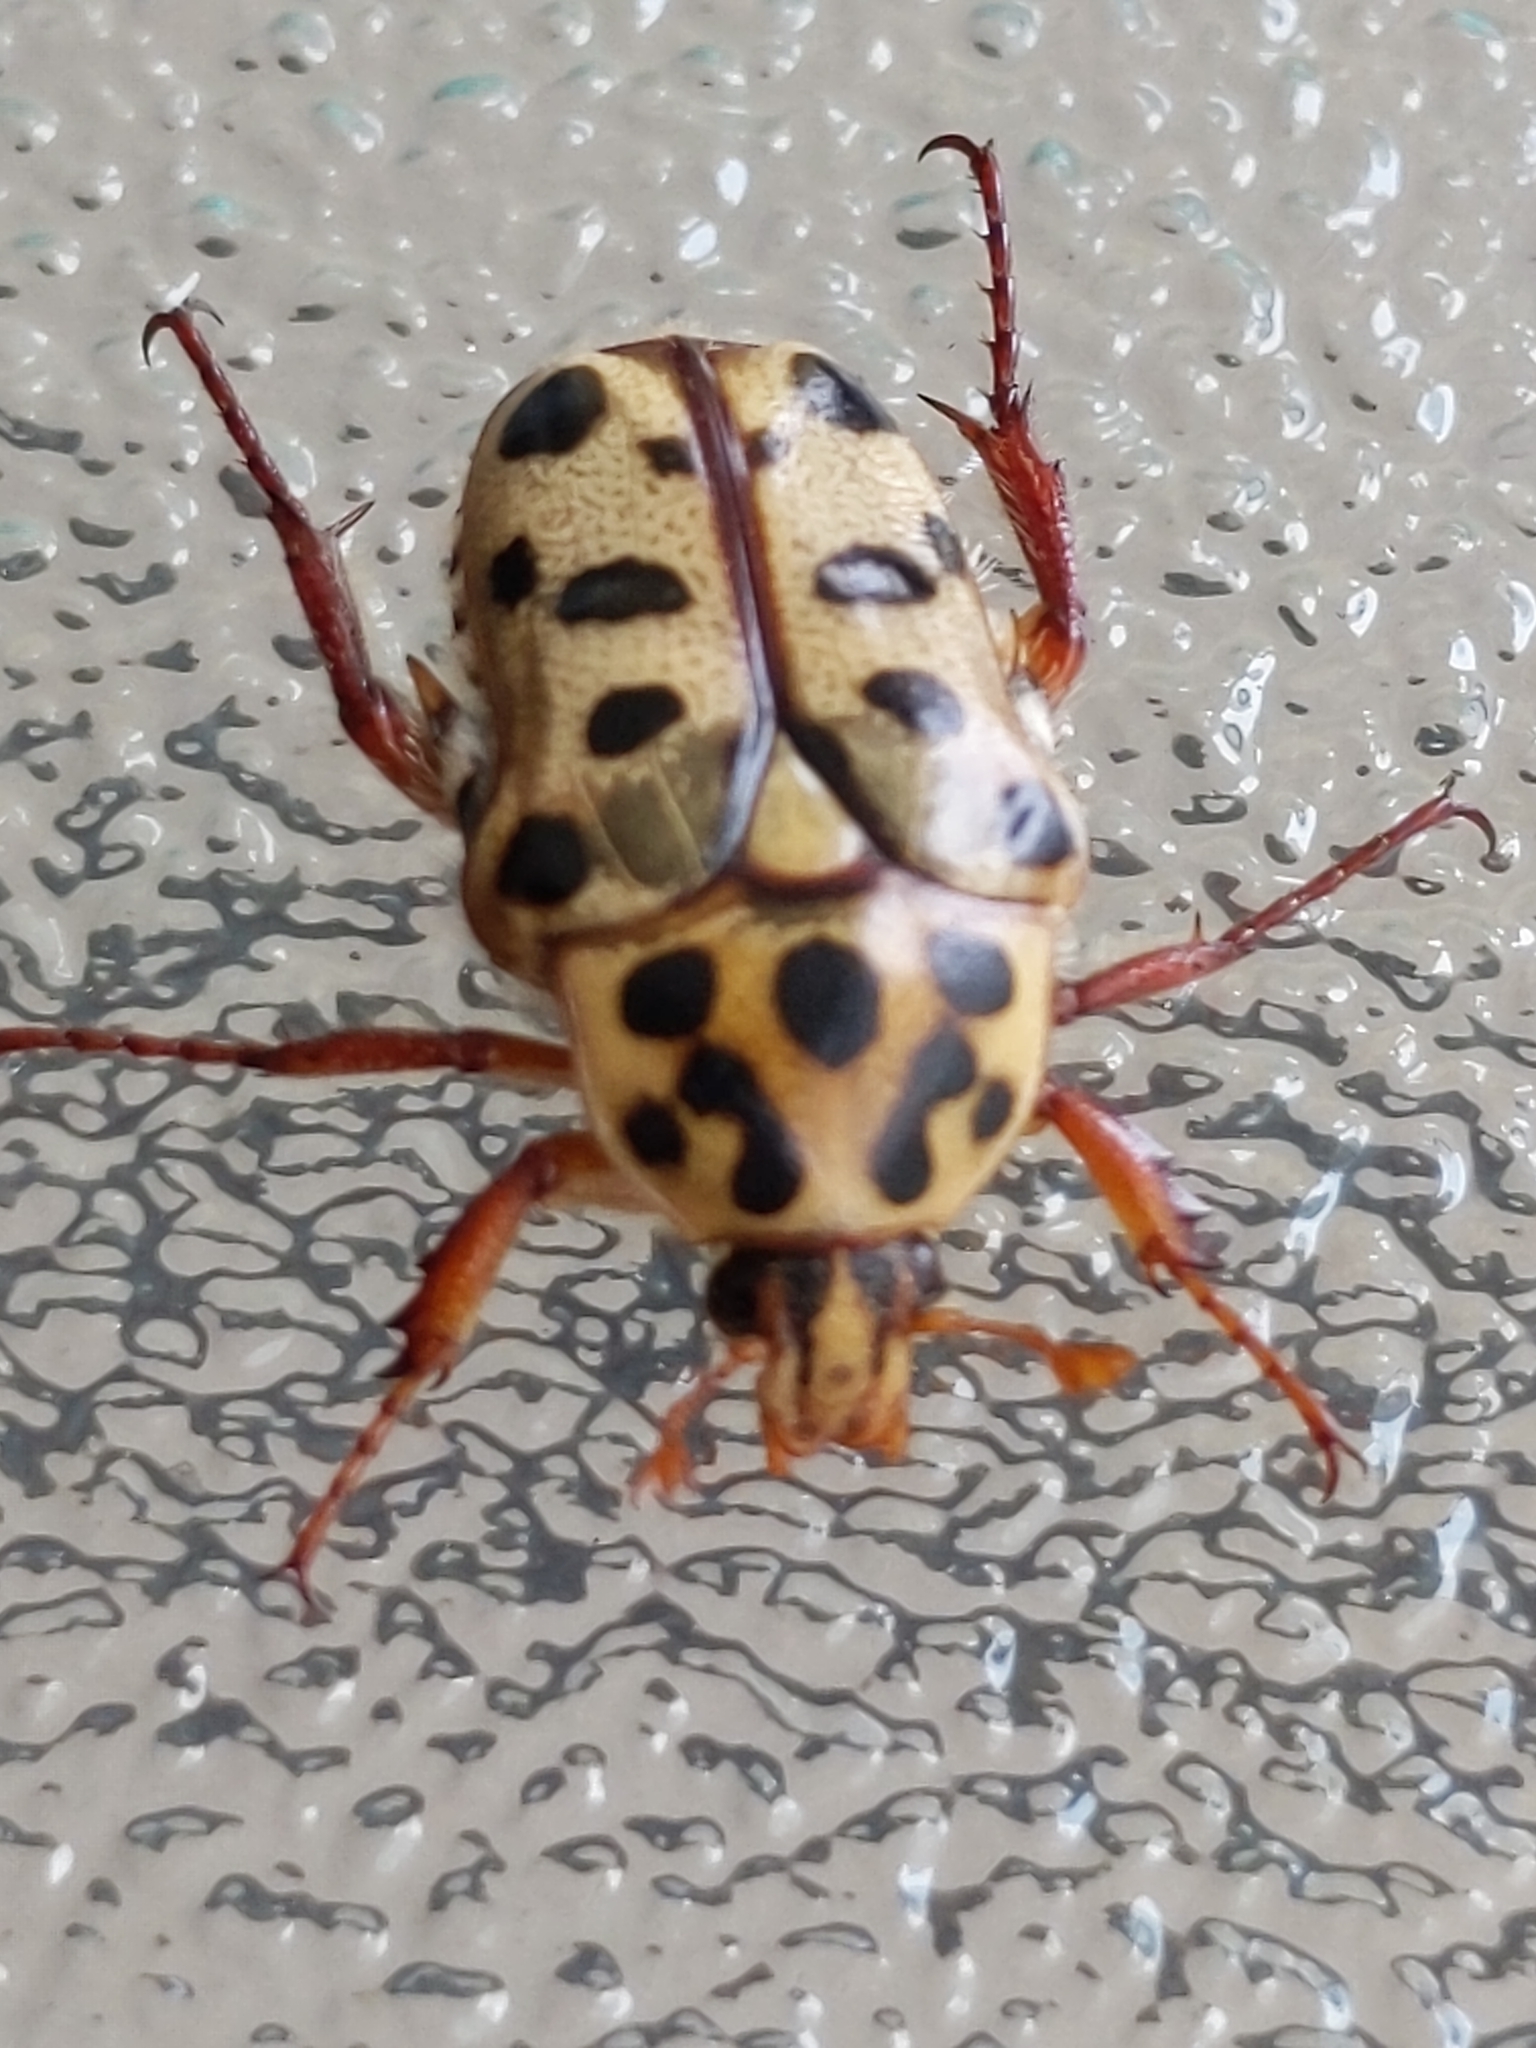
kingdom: Animalia
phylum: Arthropoda
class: Insecta
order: Coleoptera
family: Scarabaeidae
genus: Neorrhina
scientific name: Neorrhina punctatum
